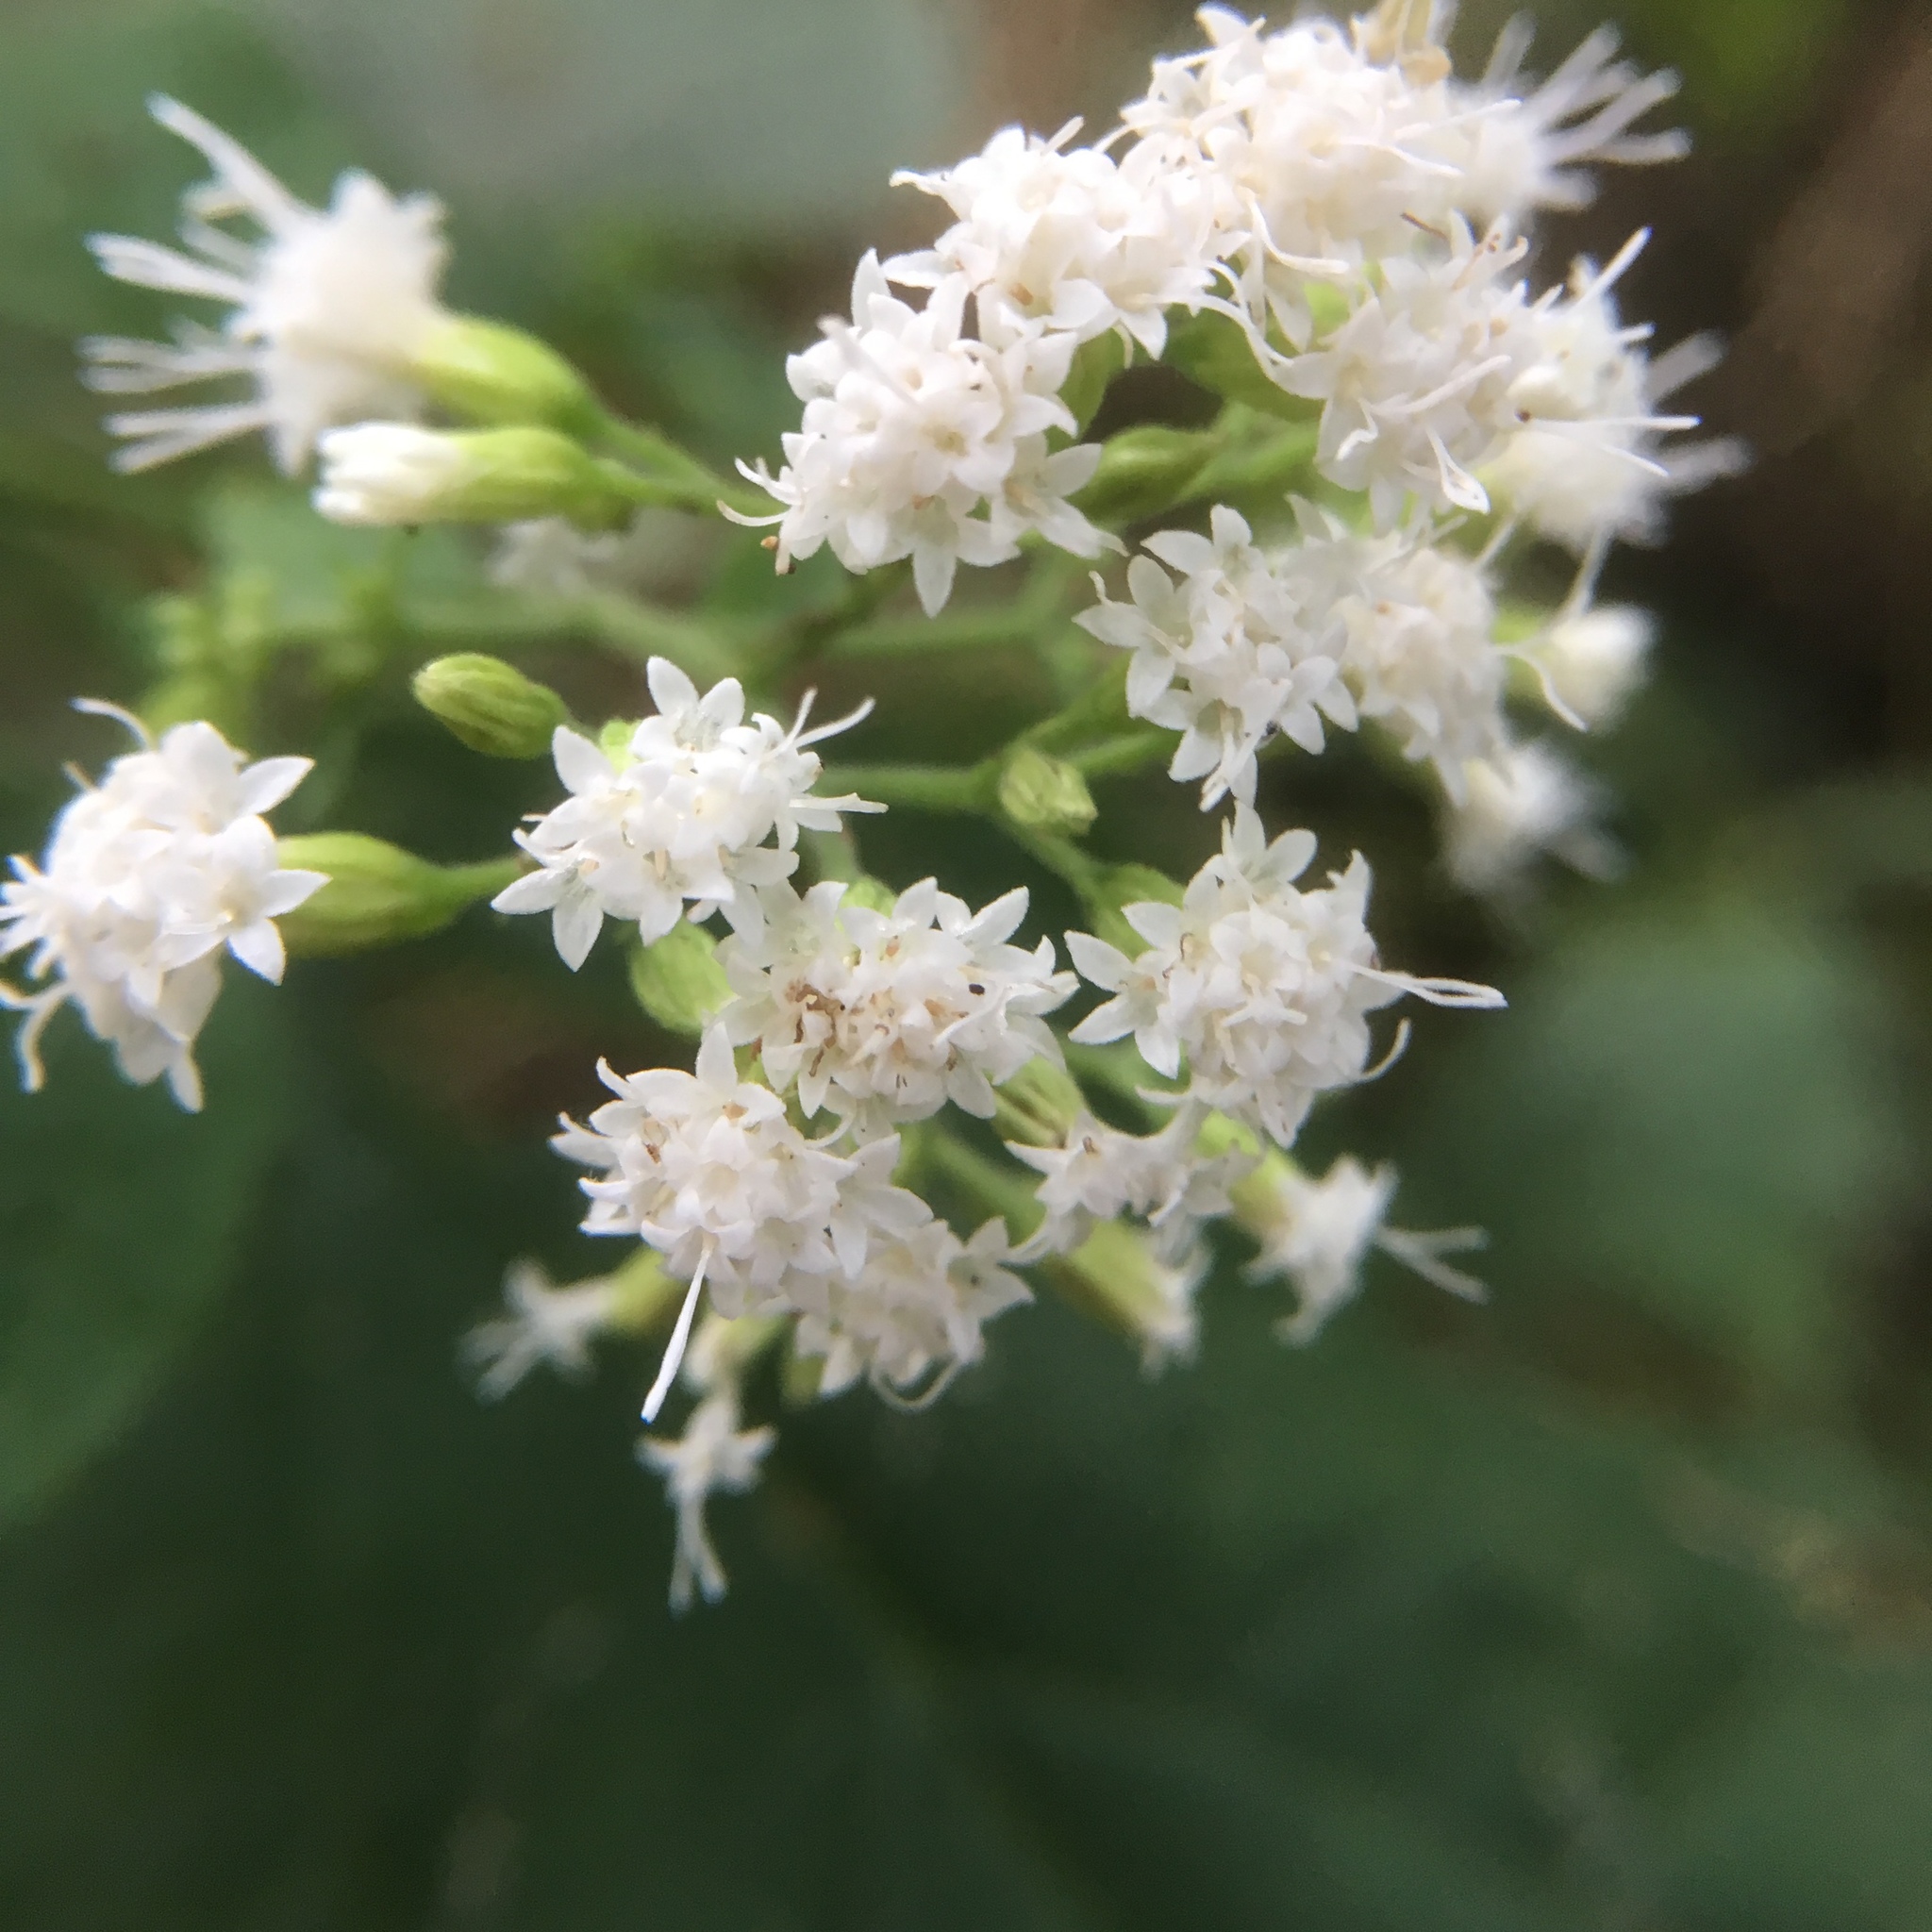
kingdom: Plantae
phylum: Tracheophyta
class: Magnoliopsida
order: Asterales
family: Asteraceae
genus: Ageratina
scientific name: Ageratina altissima
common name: White snakeroot
